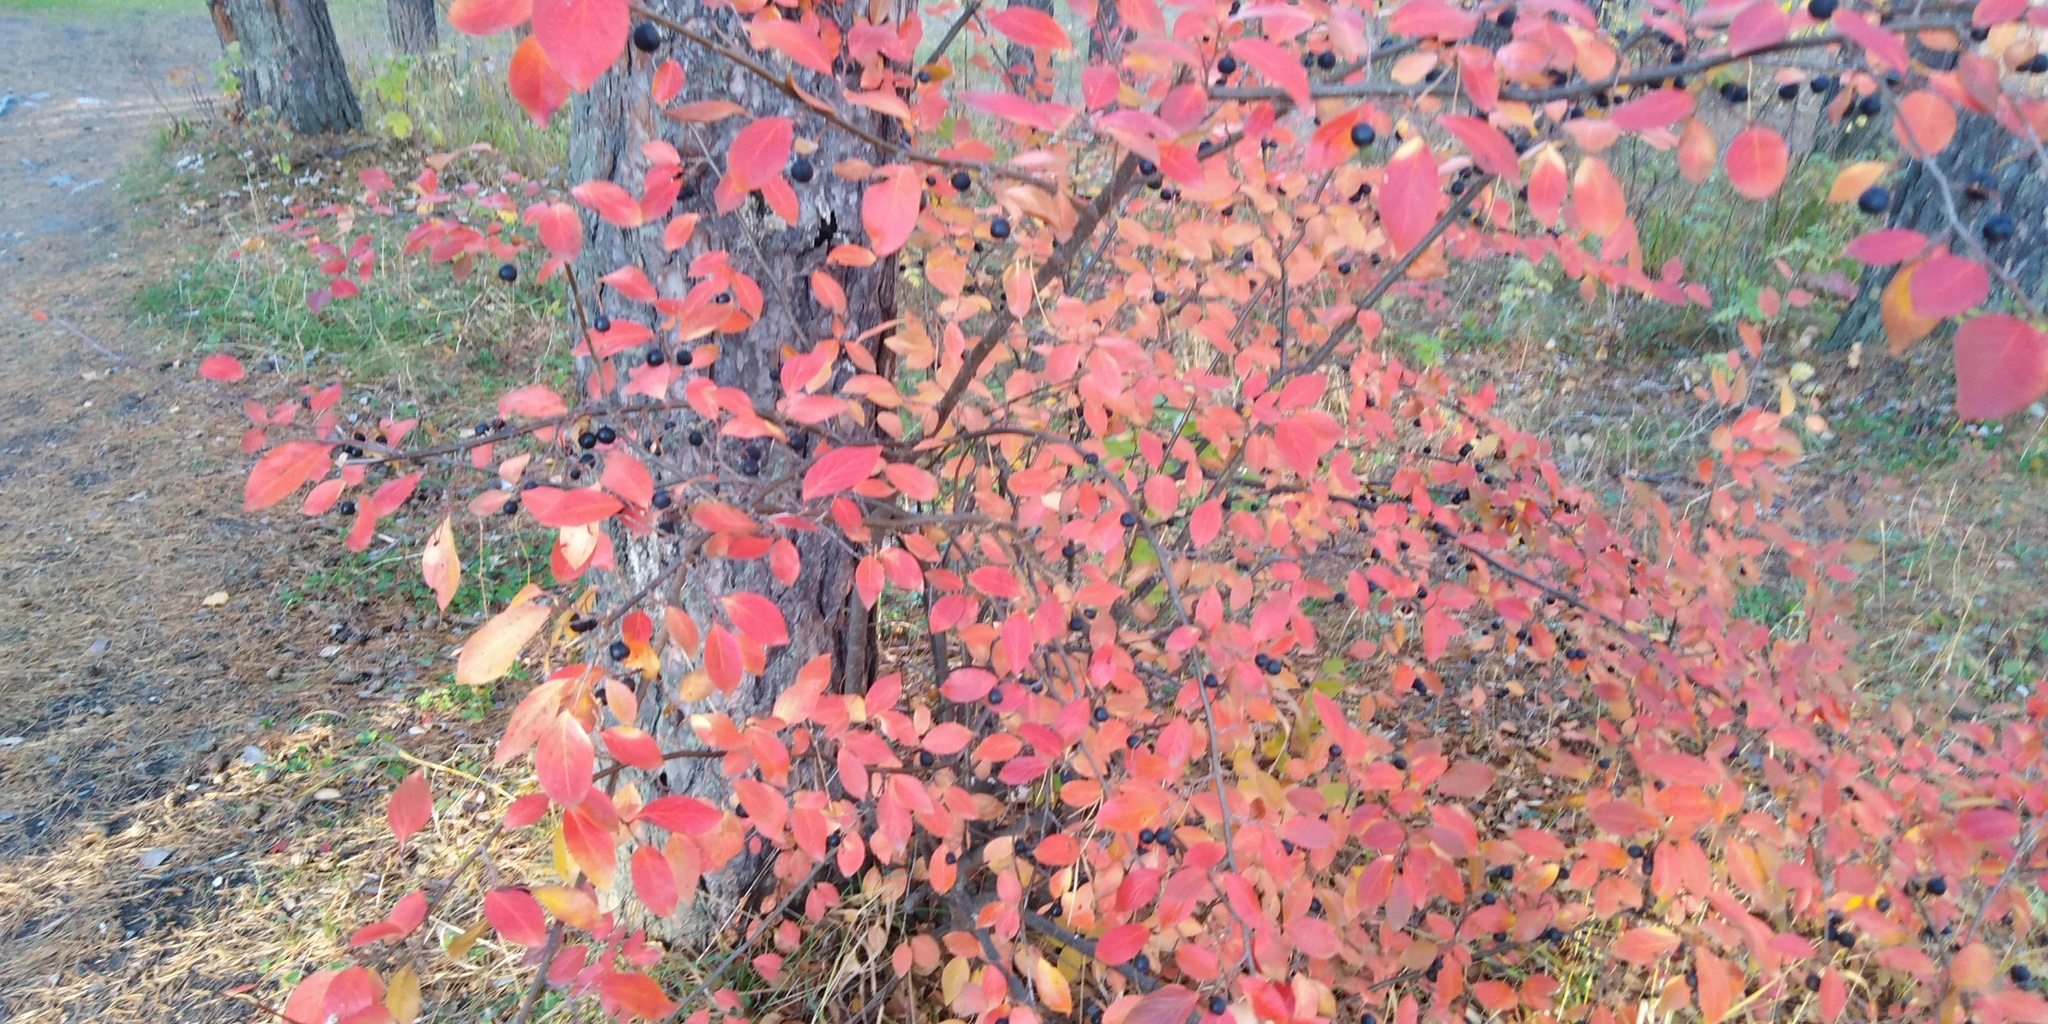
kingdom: Plantae
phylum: Tracheophyta
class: Magnoliopsida
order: Rosales
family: Rosaceae
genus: Cotoneaster
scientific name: Cotoneaster acutifolius
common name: Peking cotoneaster
